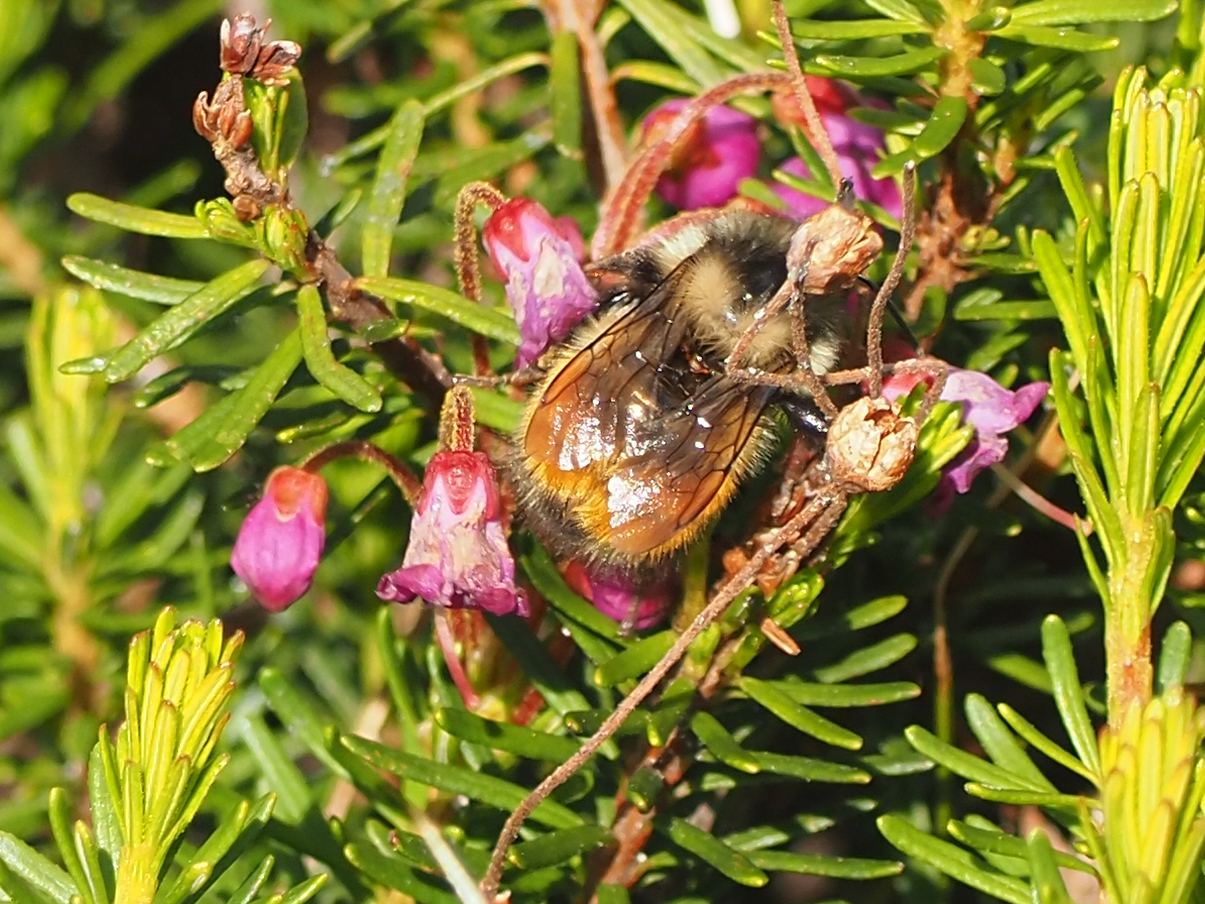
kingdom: Animalia
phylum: Arthropoda
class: Insecta
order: Hymenoptera
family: Apidae
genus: Bombus
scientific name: Bombus melanopygus
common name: Black tail bumble bee
